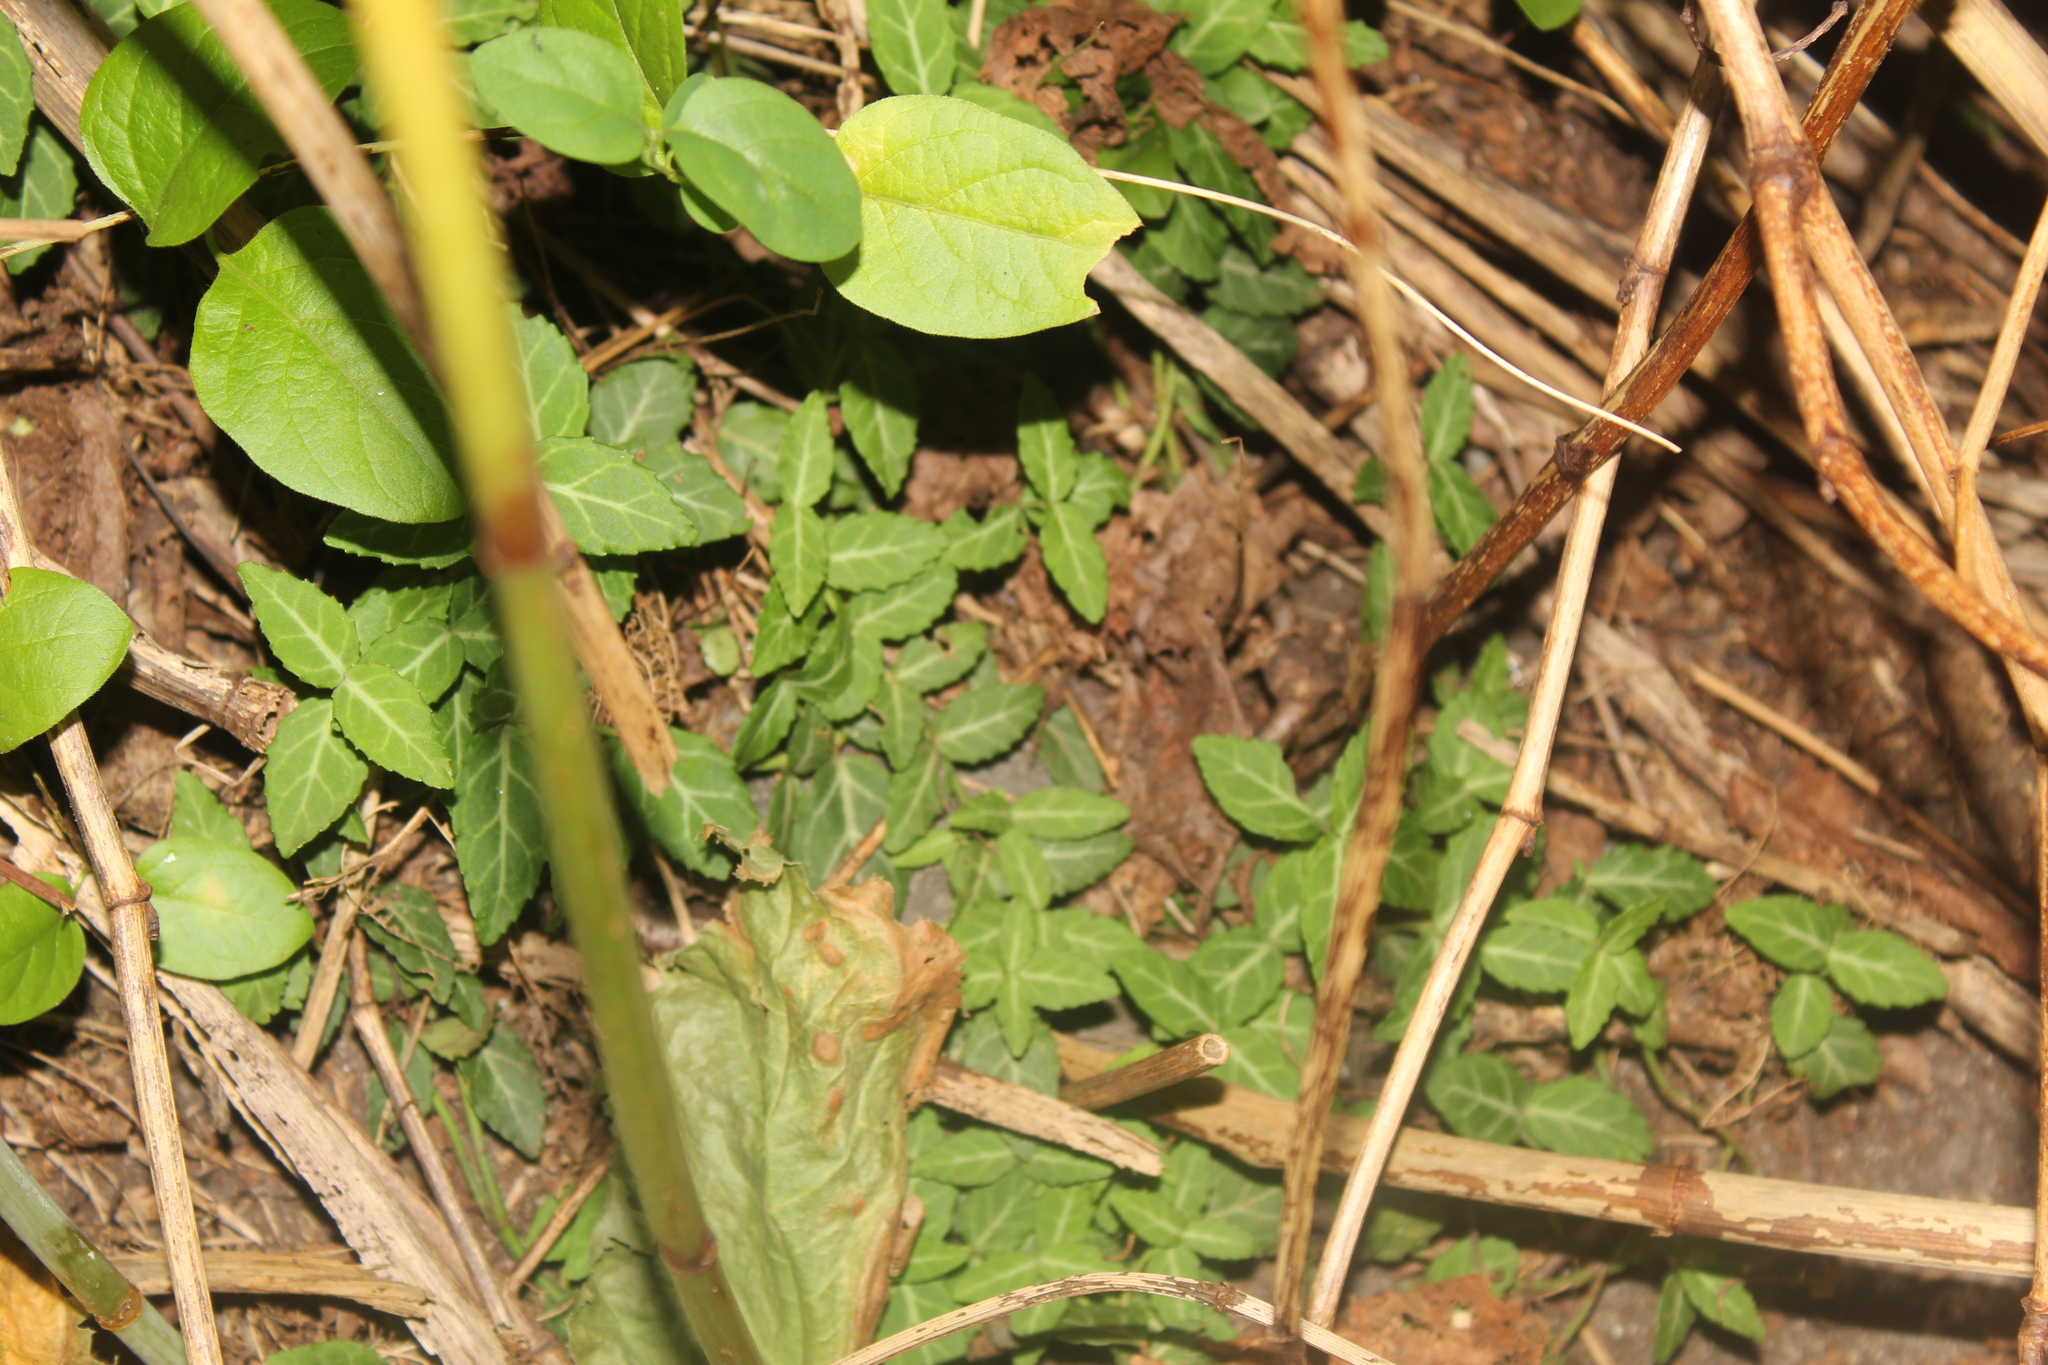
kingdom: Plantae
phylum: Tracheophyta
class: Magnoliopsida
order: Celastrales
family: Celastraceae
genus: Euonymus
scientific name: Euonymus fortunei
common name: Climbing euonymus
